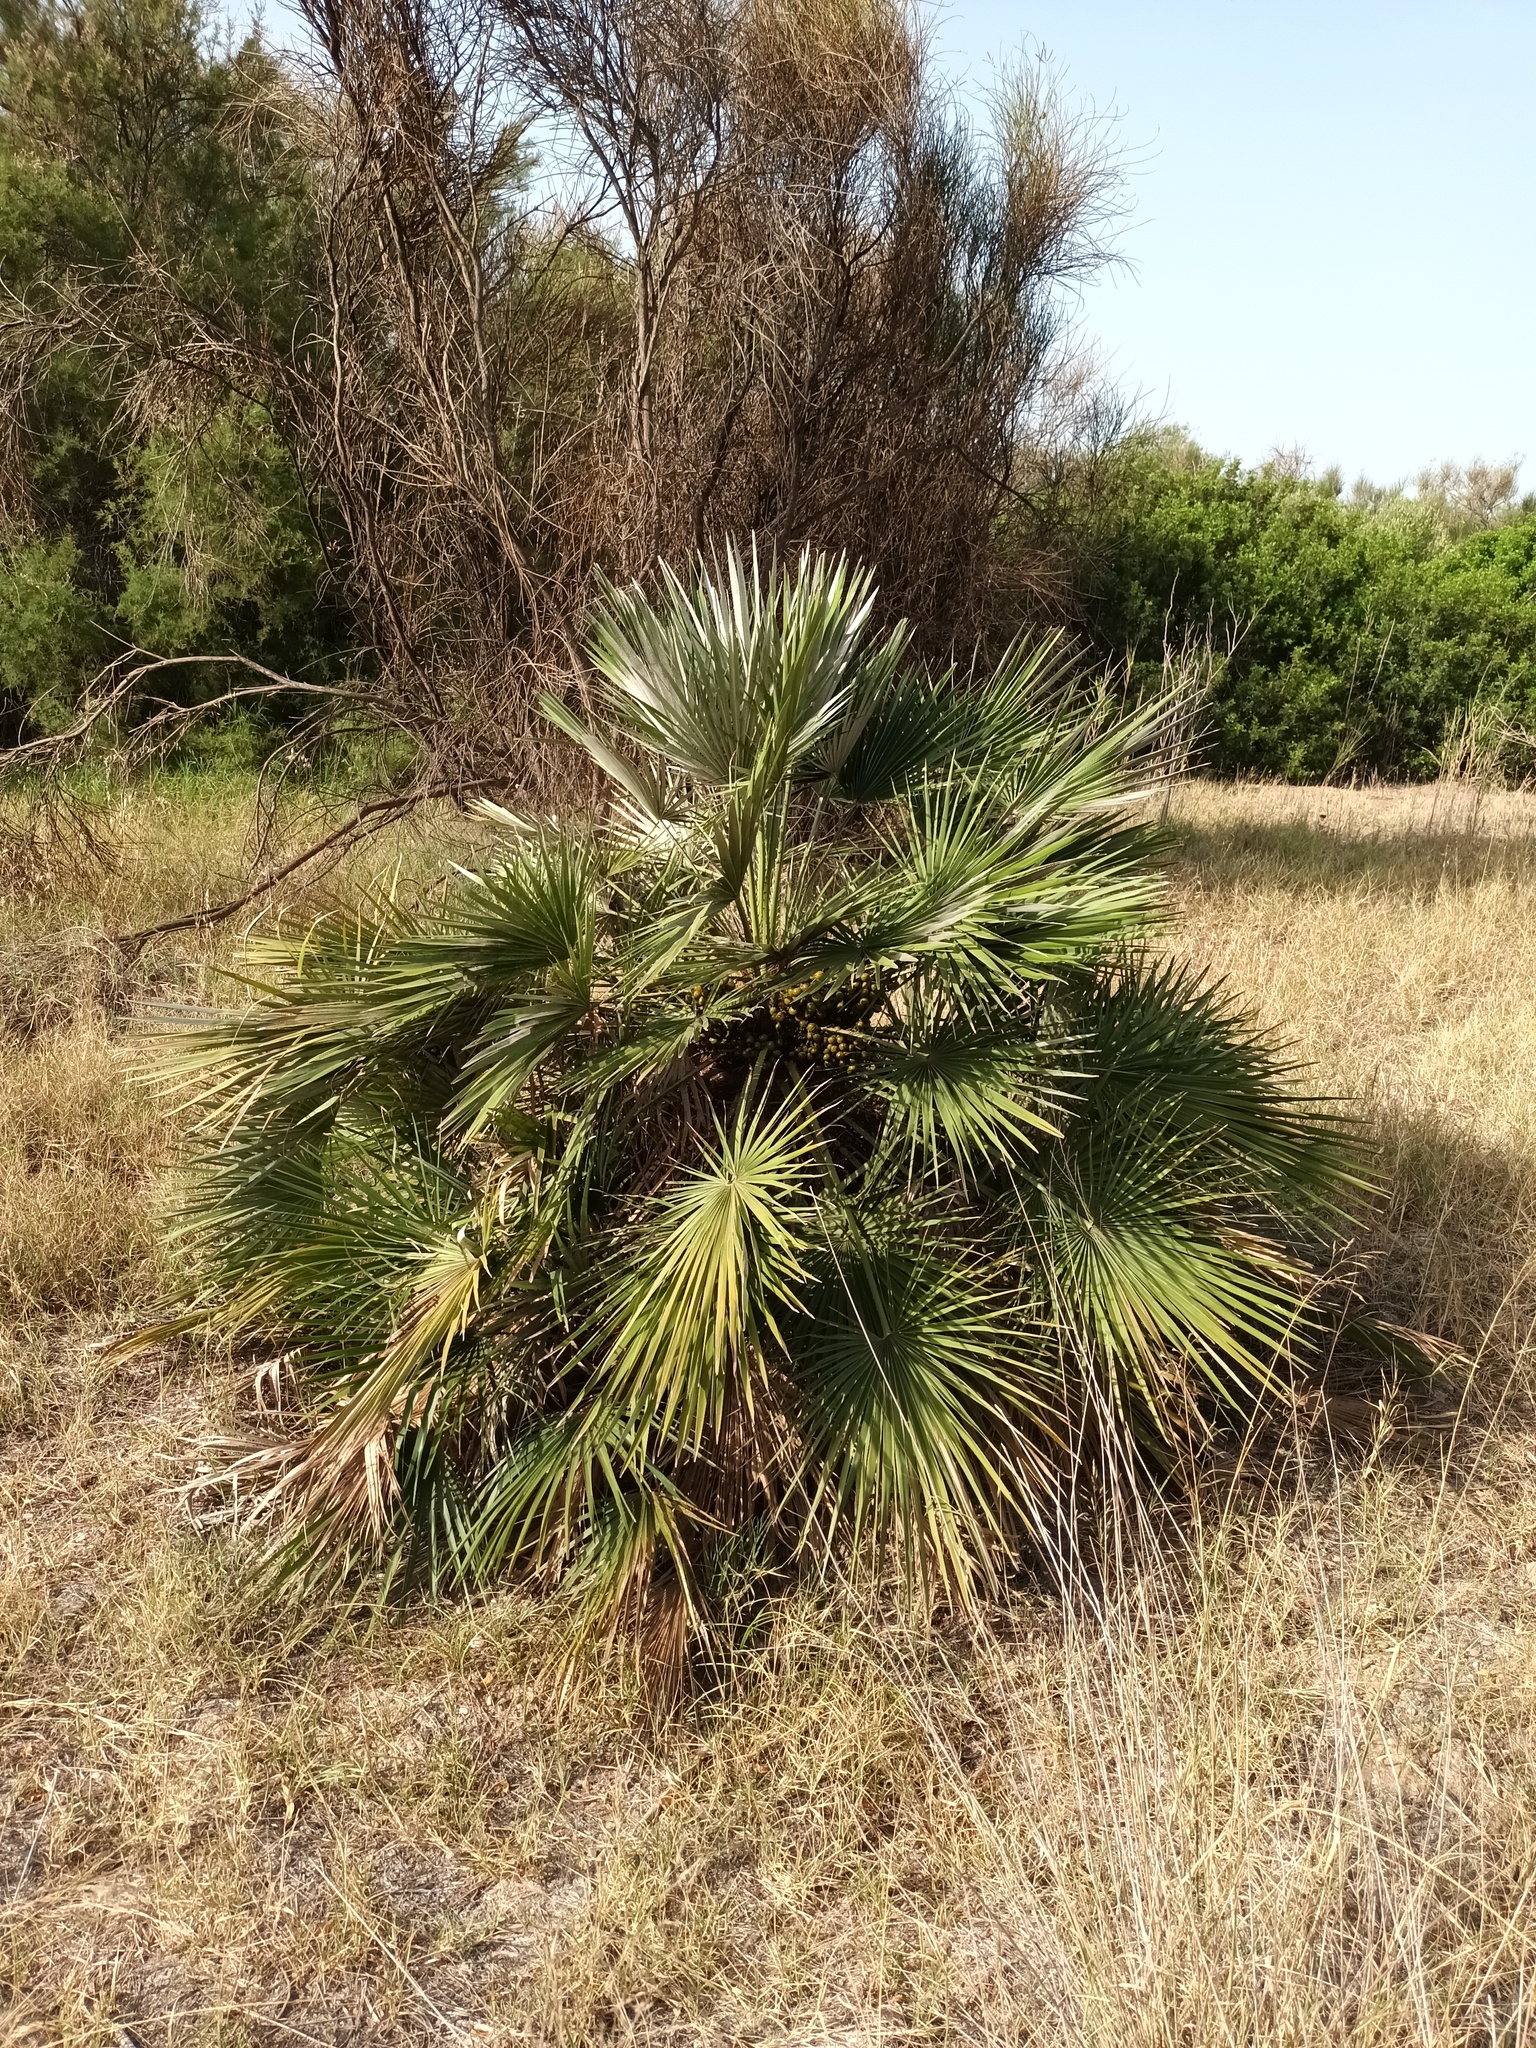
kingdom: Plantae
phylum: Tracheophyta
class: Liliopsida
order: Arecales
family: Arecaceae
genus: Chamaerops
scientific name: Chamaerops humilis
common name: Dwarf fan palm
